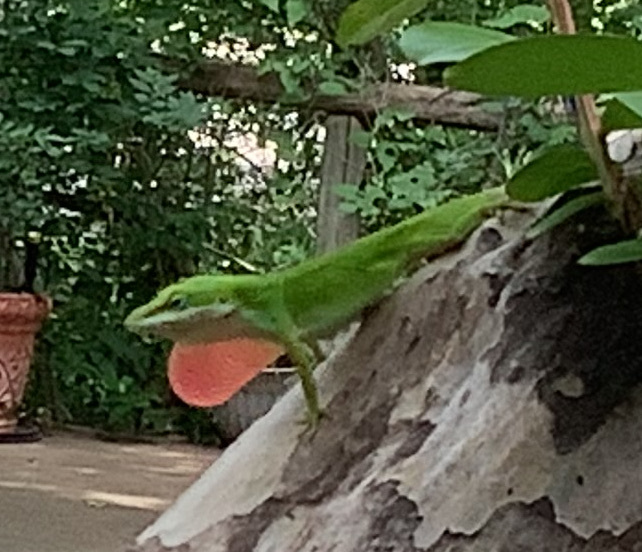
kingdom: Animalia
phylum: Chordata
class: Squamata
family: Dactyloidae
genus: Anolis
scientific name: Anolis carolinensis
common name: Green anole
